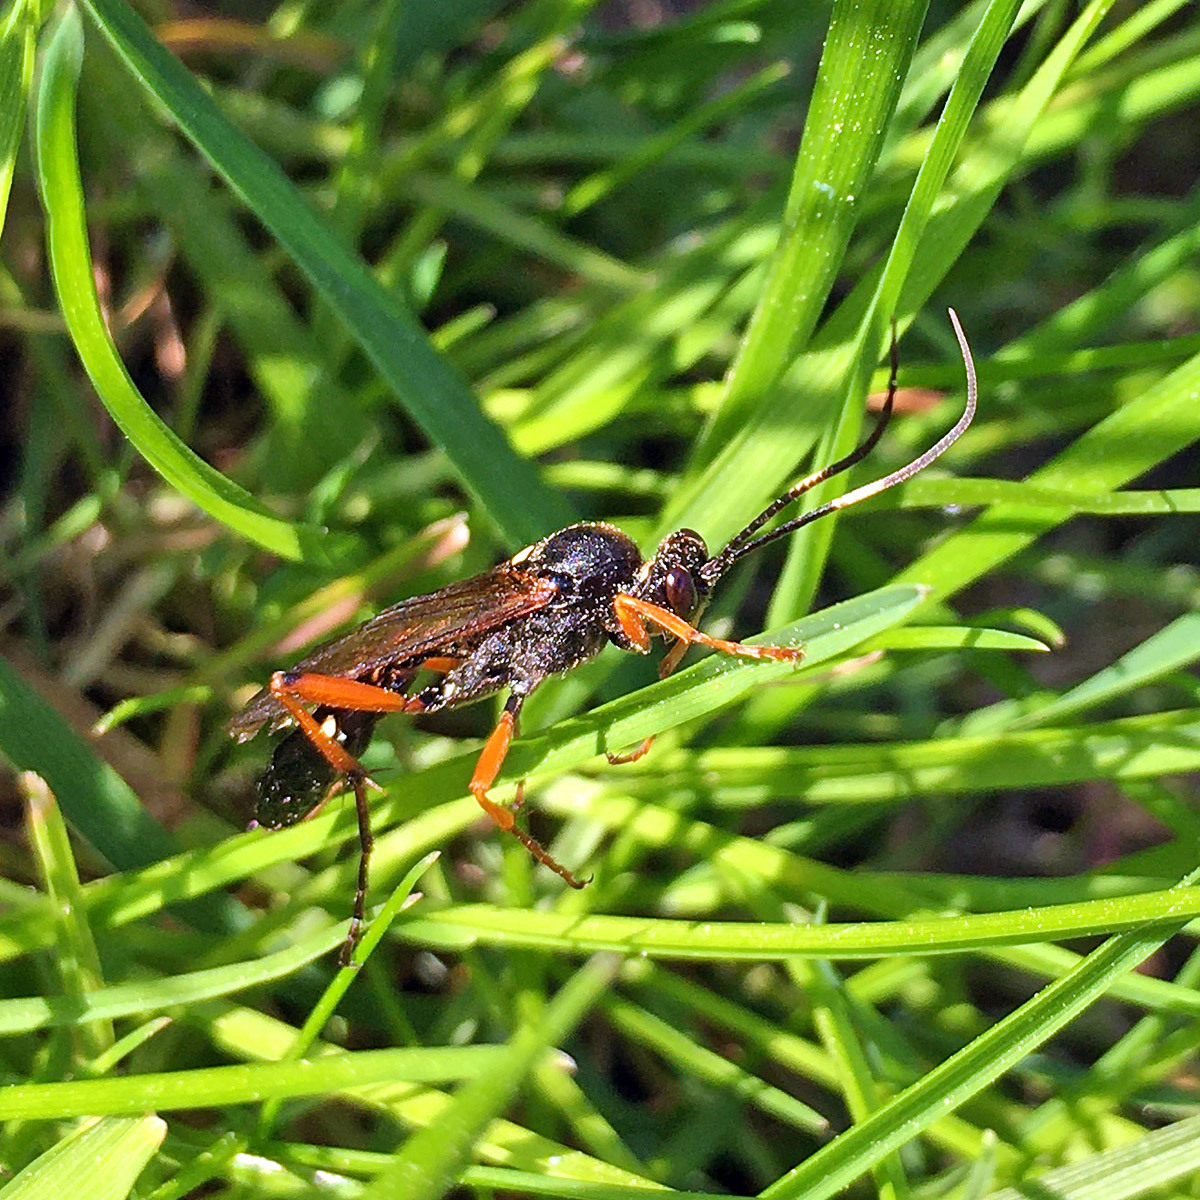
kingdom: Animalia
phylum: Arthropoda
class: Insecta
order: Hymenoptera
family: Ichneumonidae
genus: Diphyus
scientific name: Diphyus quadripunctorius
